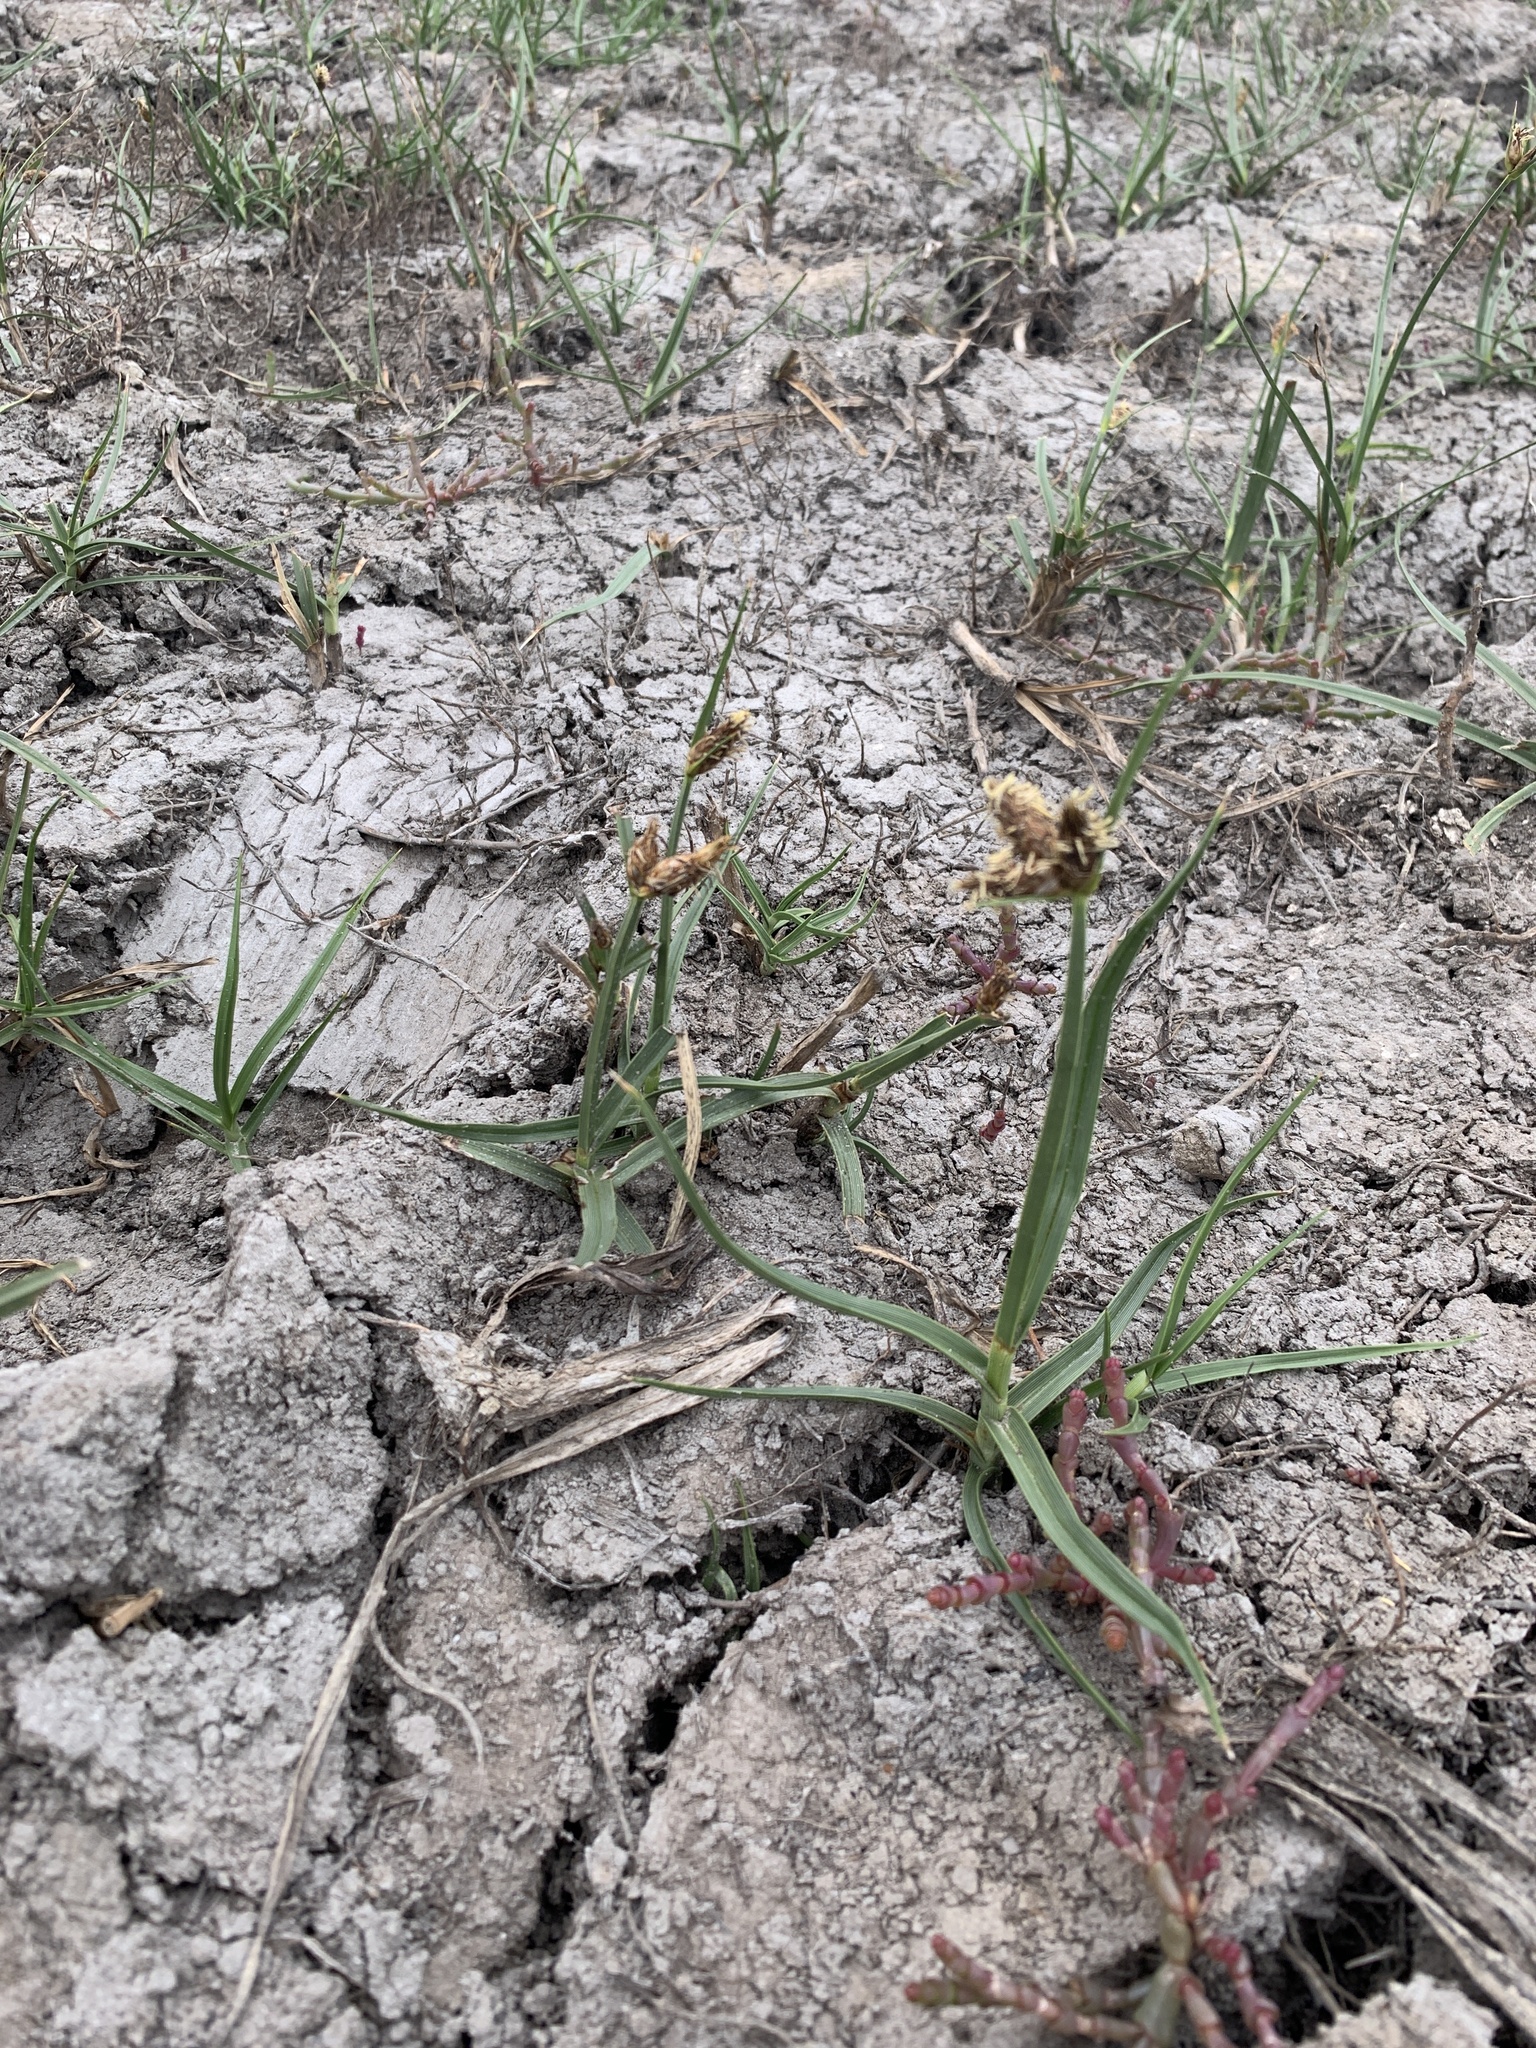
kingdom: Plantae
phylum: Tracheophyta
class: Liliopsida
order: Poales
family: Cyperaceae
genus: Bolboschoenus
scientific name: Bolboschoenus maritimus
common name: Sea club-rush
